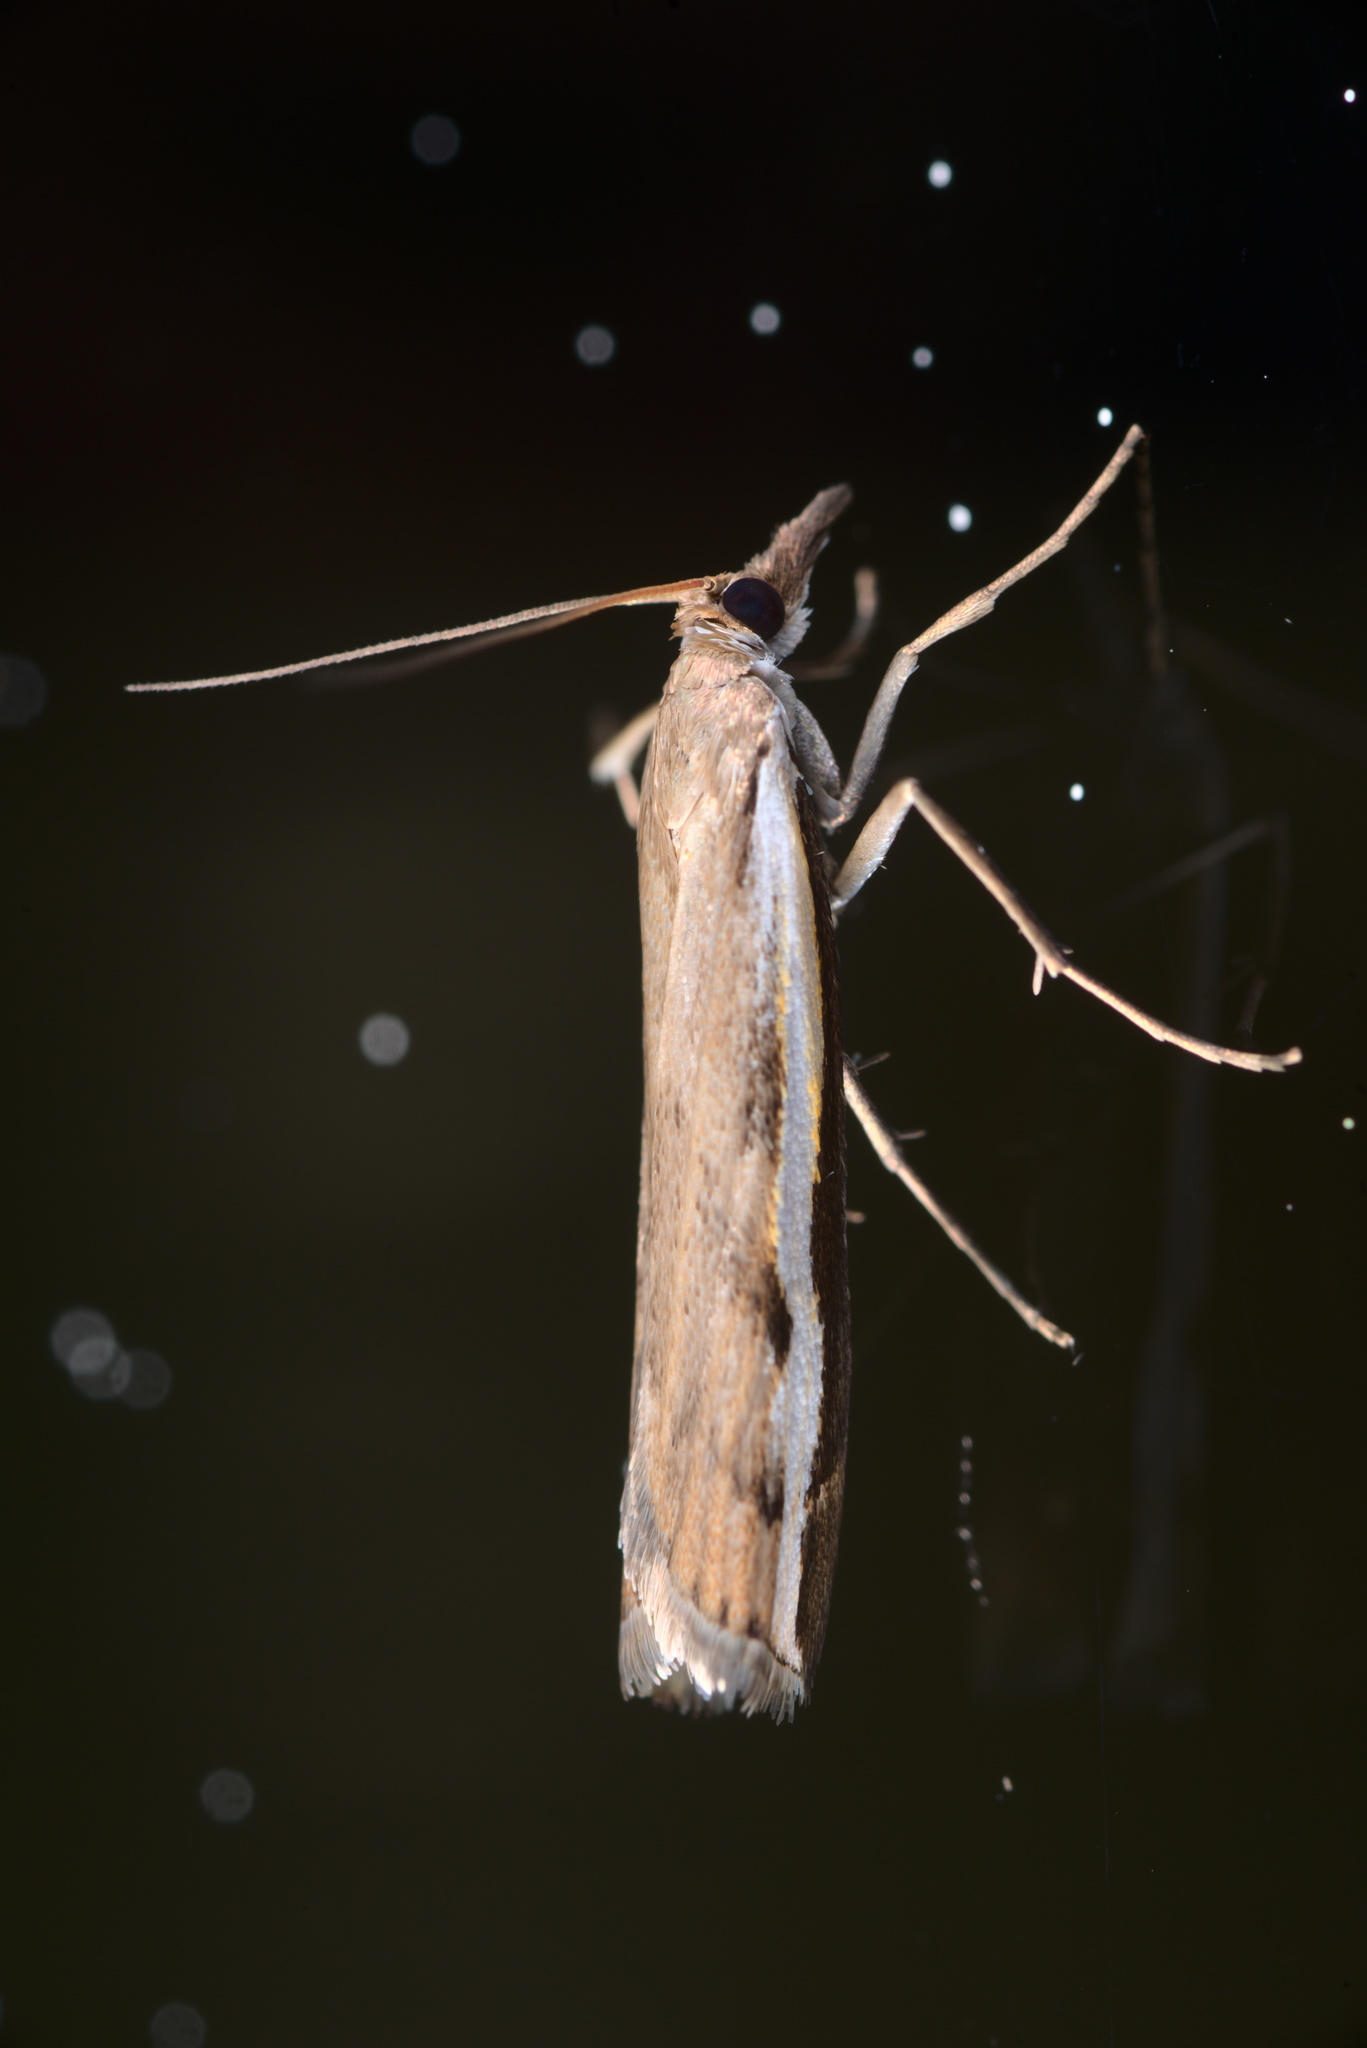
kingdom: Animalia
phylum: Arthropoda
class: Insecta
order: Lepidoptera
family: Crambidae
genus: Orocrambus
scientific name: Orocrambus flexuosellus
